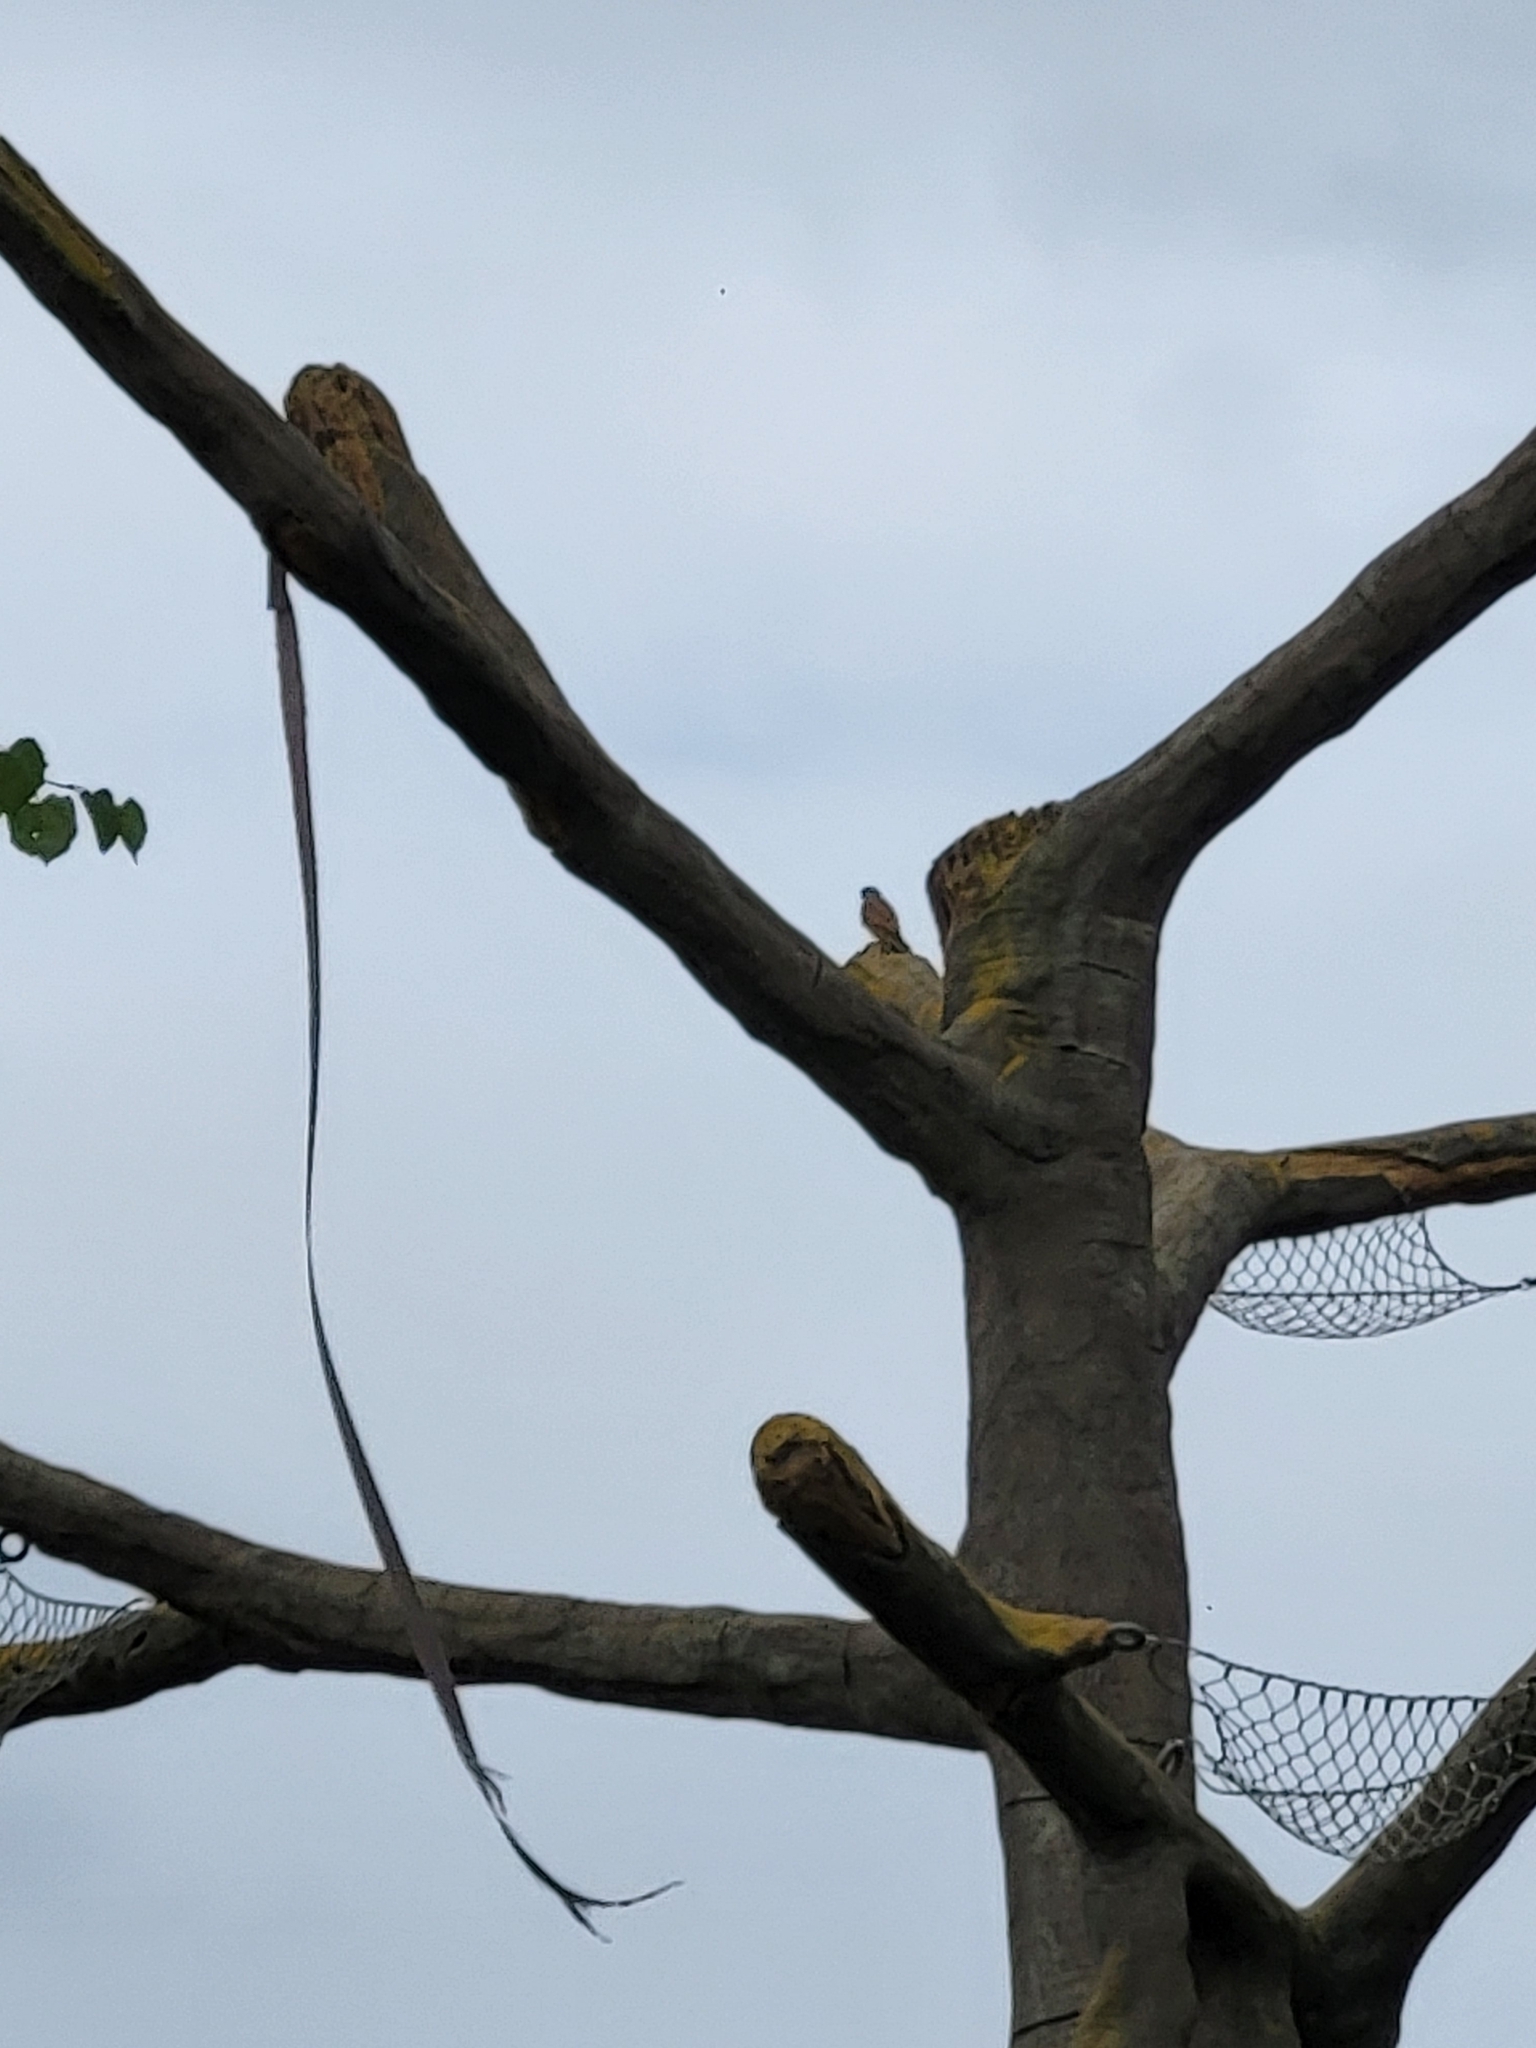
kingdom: Animalia
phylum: Chordata
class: Aves
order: Falconiformes
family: Falconidae
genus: Falco
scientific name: Falco tinnunculus
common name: Common kestrel
